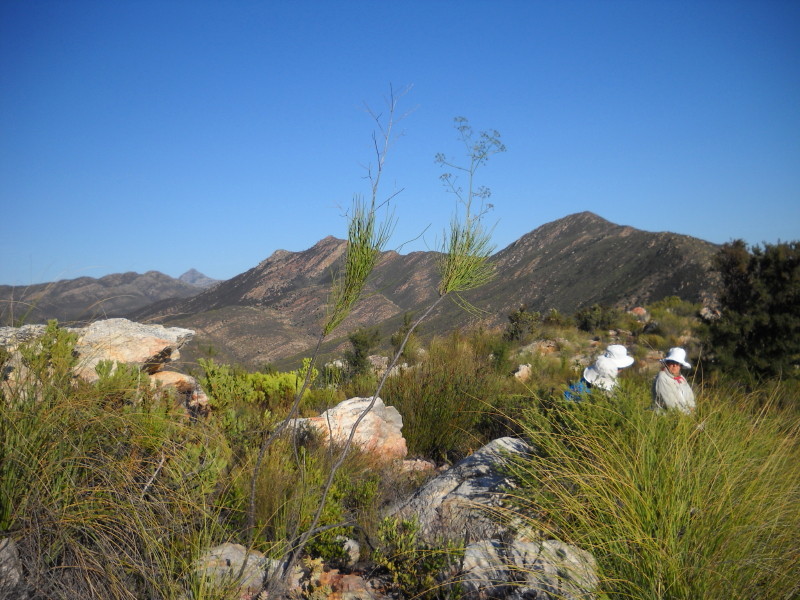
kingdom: Plantae
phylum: Tracheophyta
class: Magnoliopsida
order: Apiales
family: Apiaceae
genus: Anginon
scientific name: Anginon difforme
